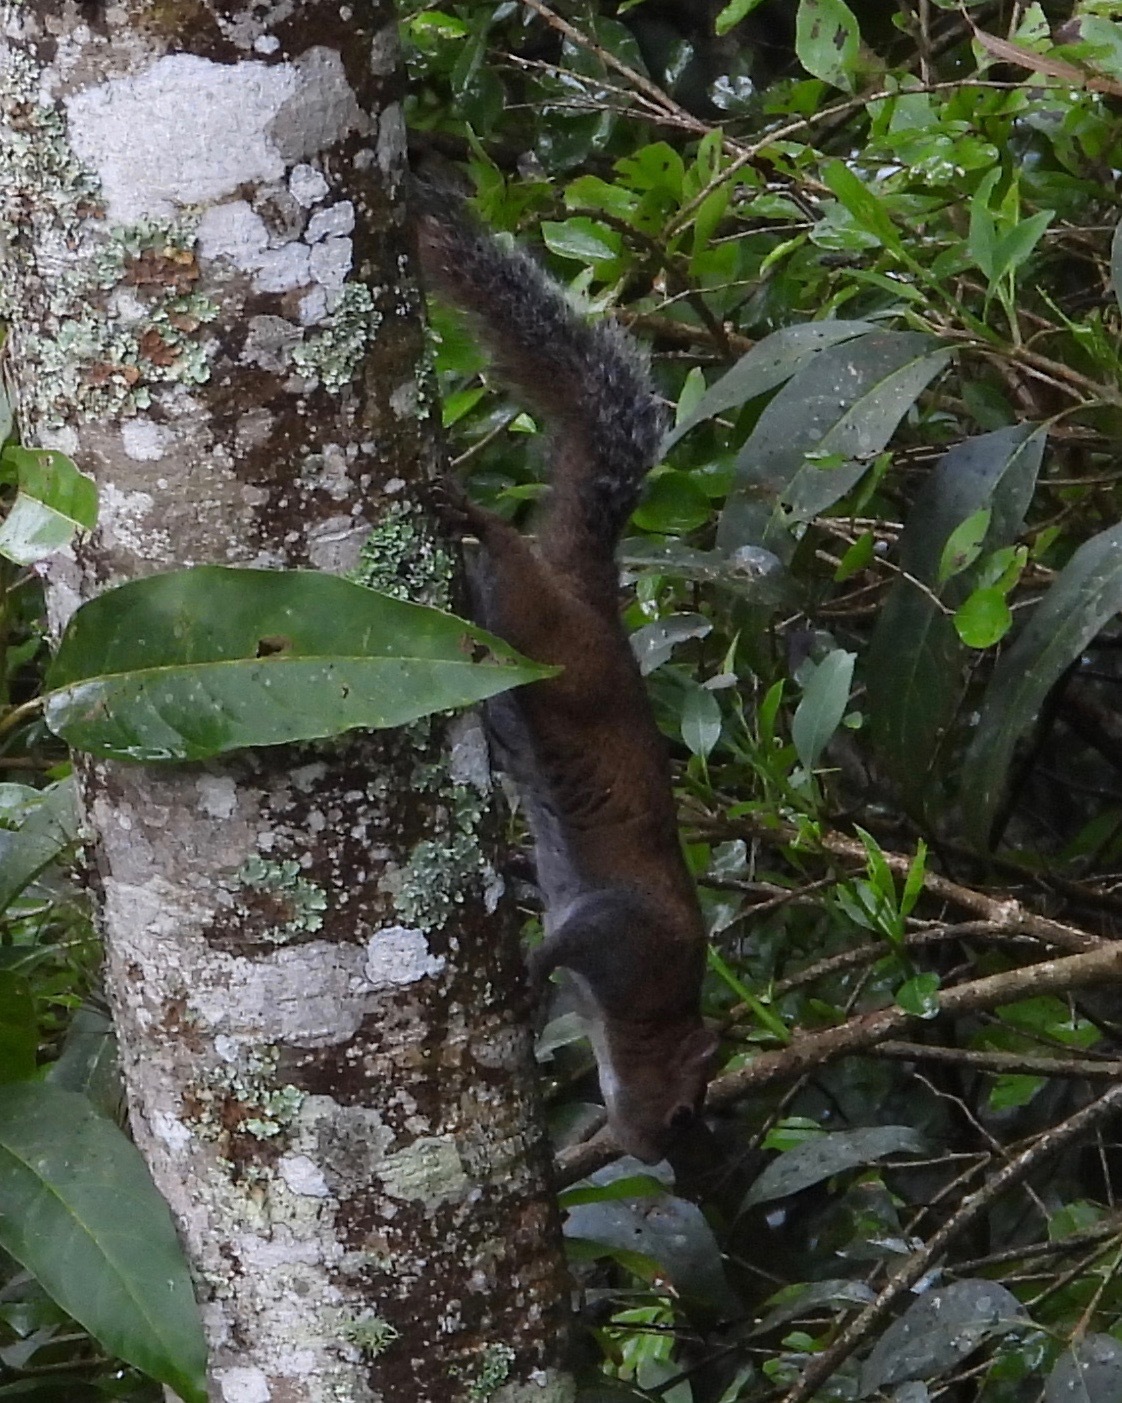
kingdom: Animalia
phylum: Chordata
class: Mammalia
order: Rodentia
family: Sciuridae
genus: Sciurus
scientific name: Sciurus deppei
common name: Deppe's squirrel
